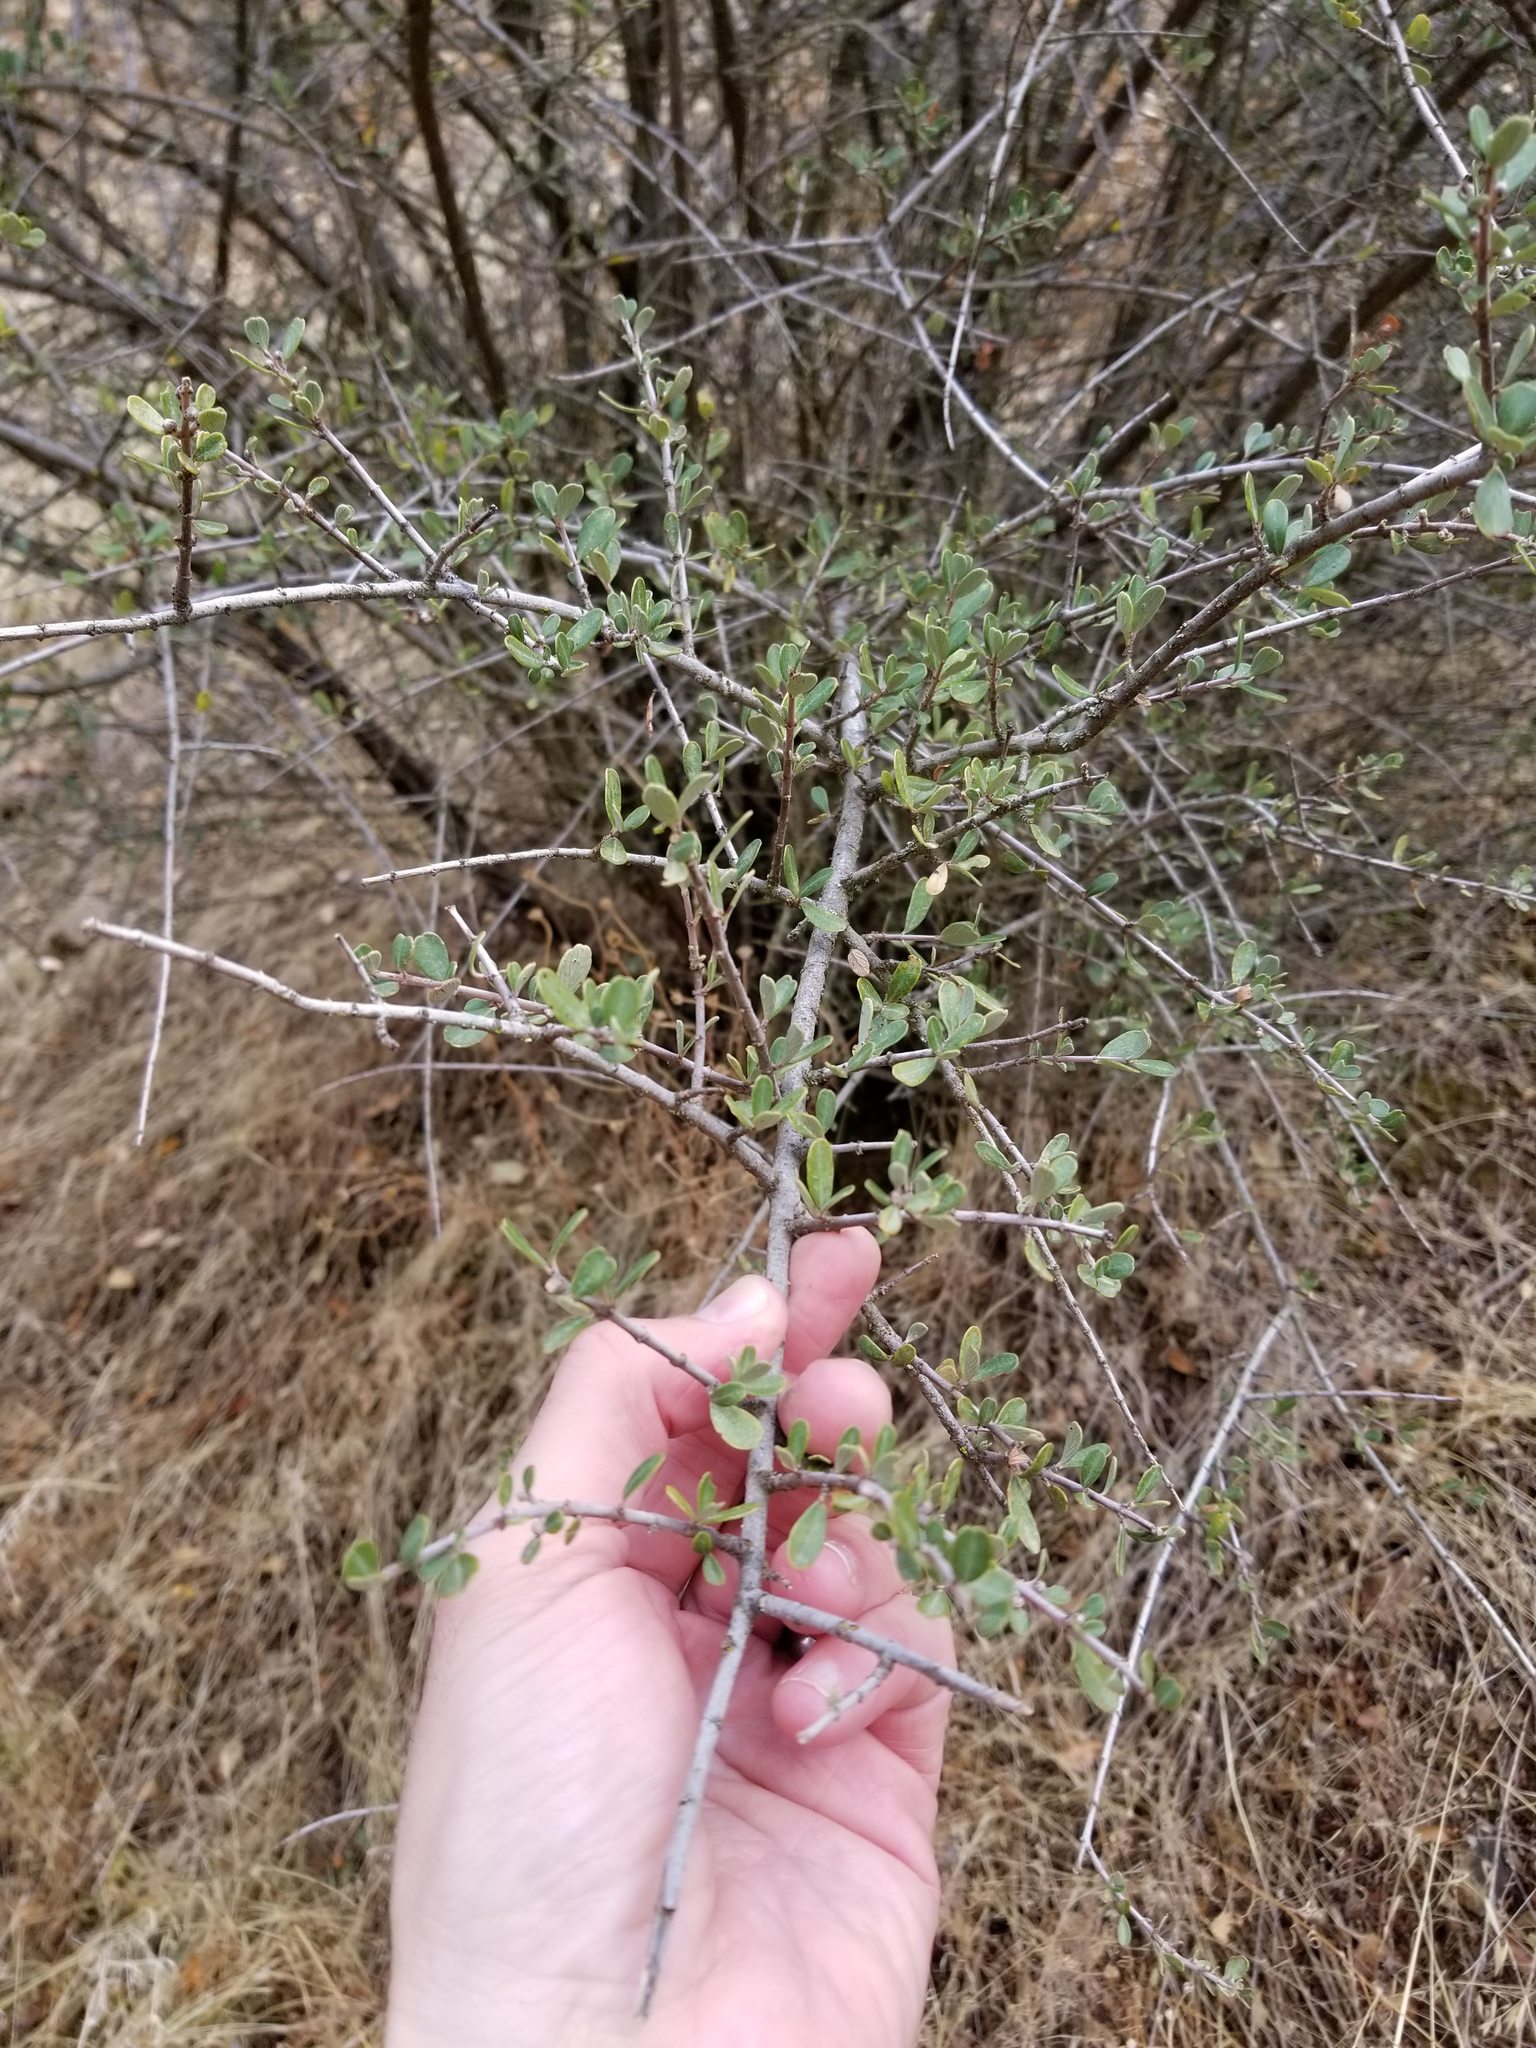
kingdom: Plantae
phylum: Tracheophyta
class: Magnoliopsida
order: Rosales
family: Rhamnaceae
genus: Ceanothus
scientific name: Ceanothus cuneatus
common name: Cuneate ceanothus
